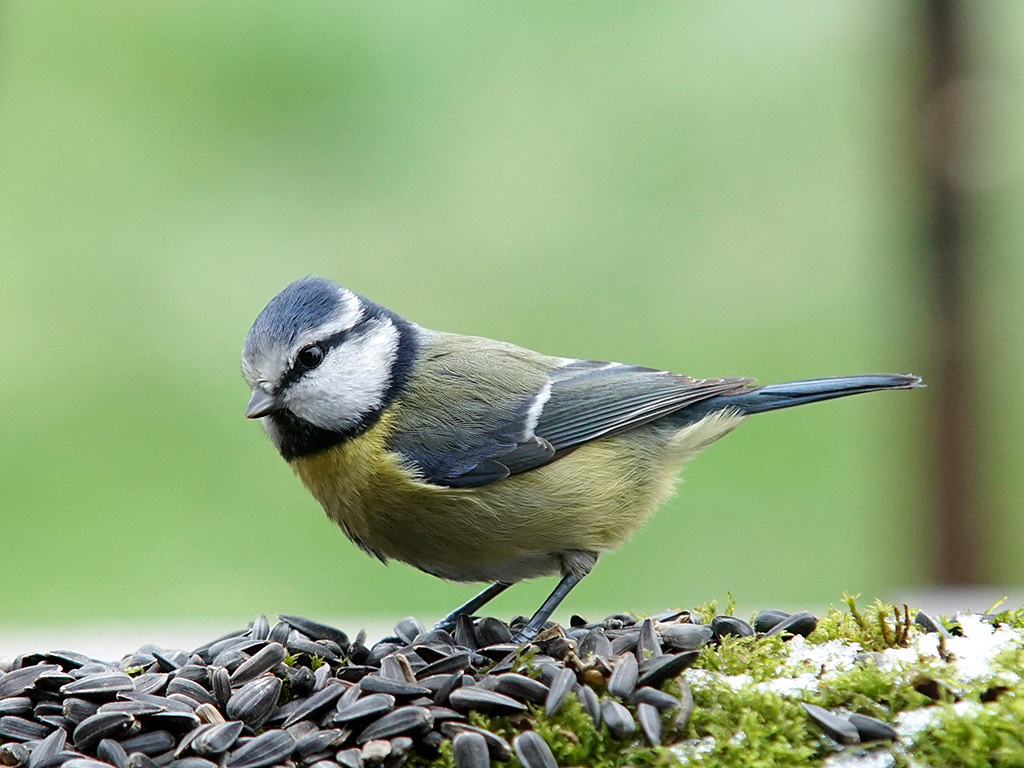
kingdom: Animalia
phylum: Chordata
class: Aves
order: Passeriformes
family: Paridae
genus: Cyanistes
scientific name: Cyanistes caeruleus
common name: Eurasian blue tit
